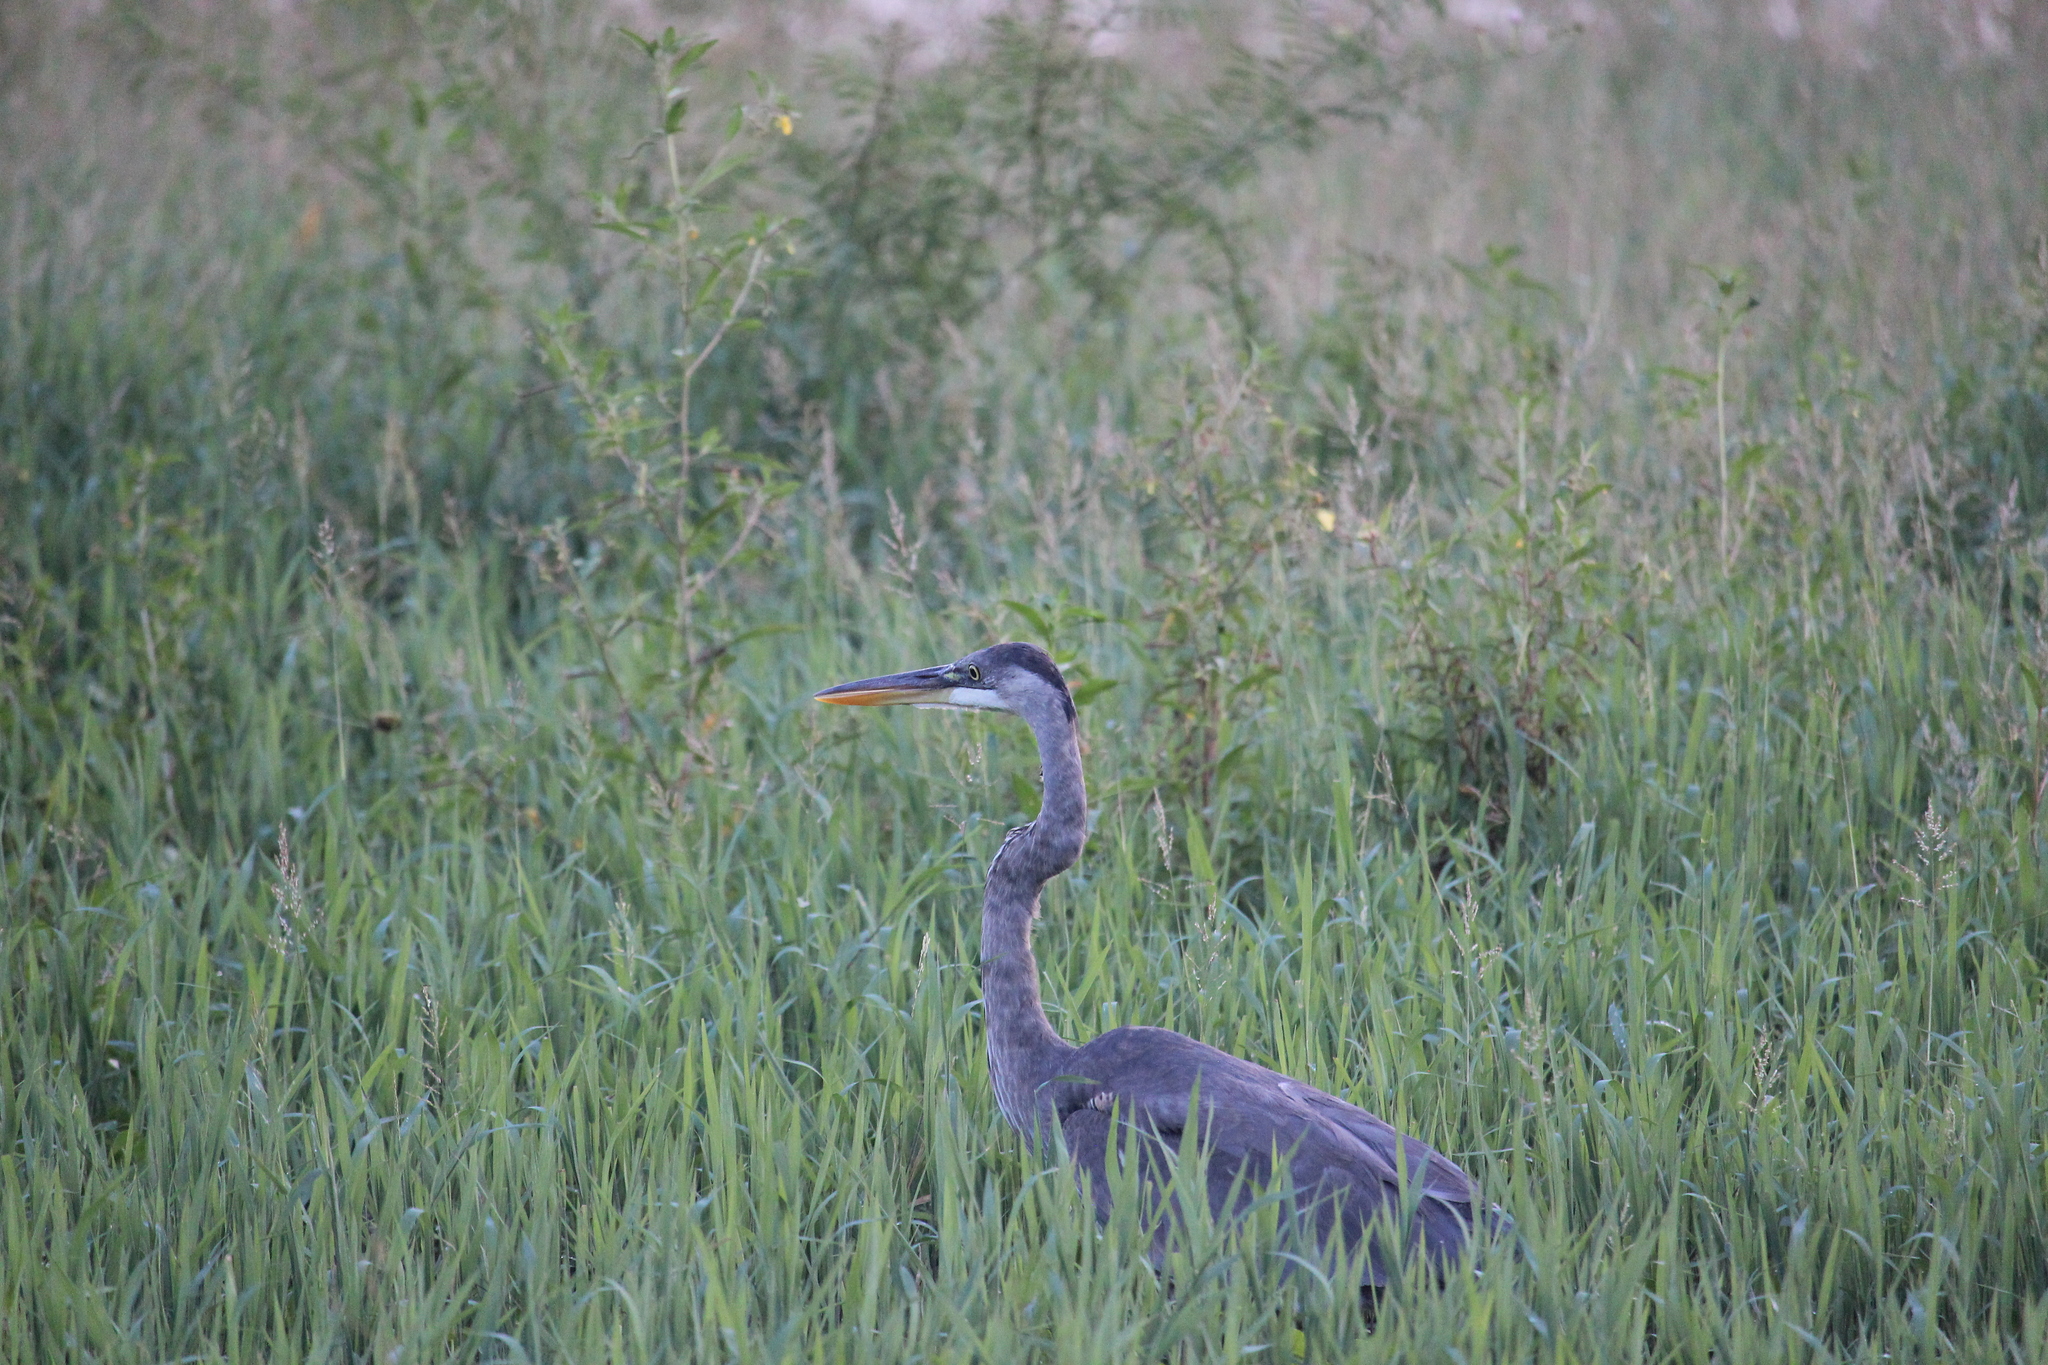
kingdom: Animalia
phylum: Chordata
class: Aves
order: Pelecaniformes
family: Ardeidae
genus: Ardea
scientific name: Ardea herodias
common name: Great blue heron
